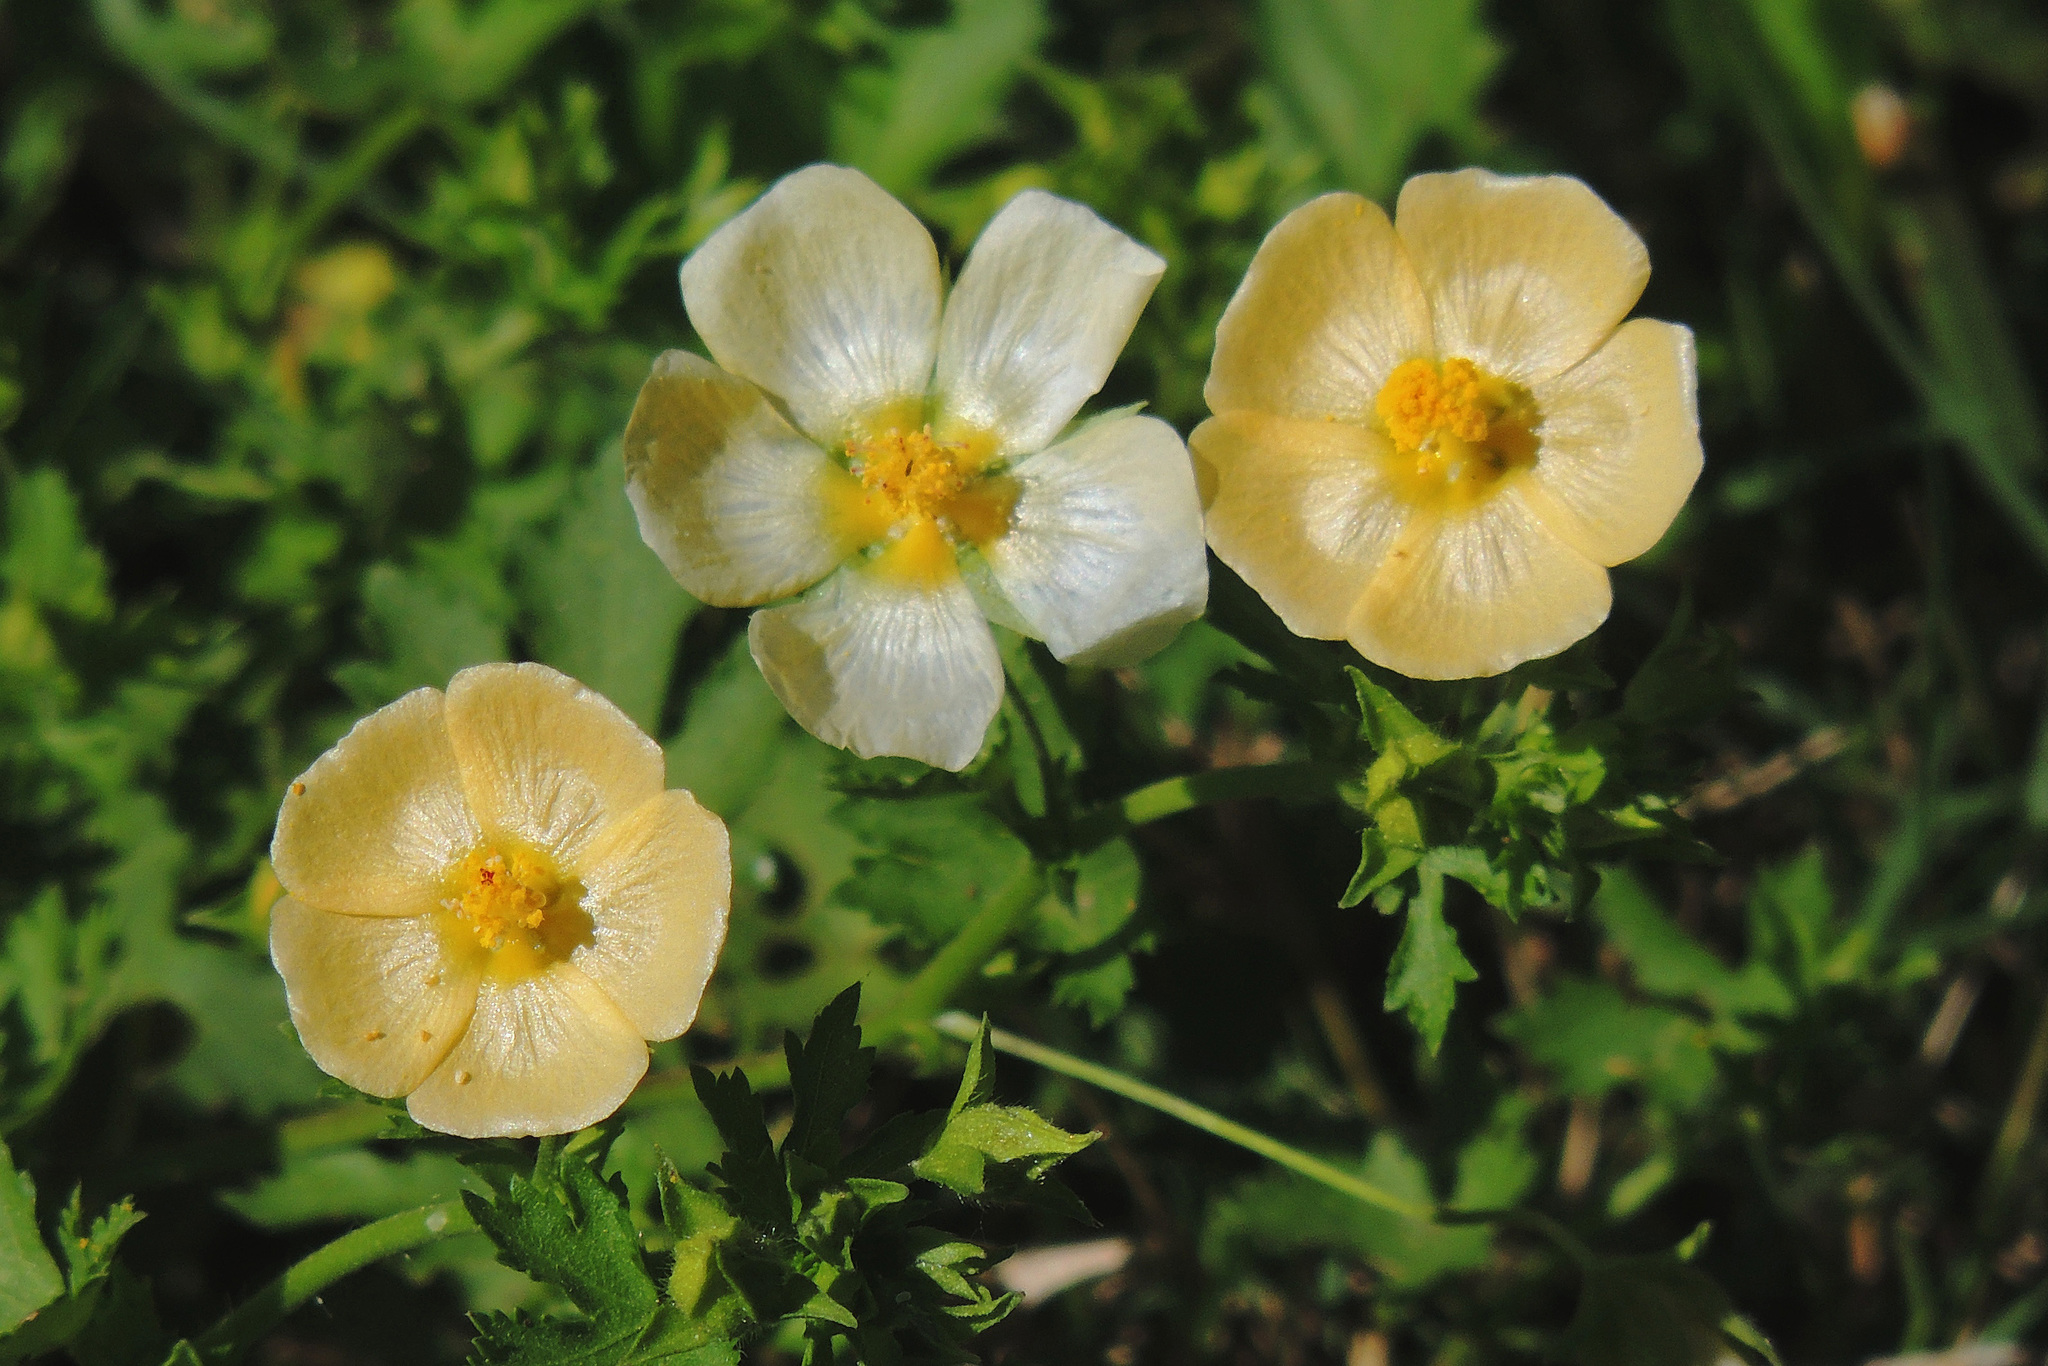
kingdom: Plantae
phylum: Tracheophyta
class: Magnoliopsida
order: Malvales
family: Malvaceae
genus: Modiolastrum
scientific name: Modiolastrum malvifolium
